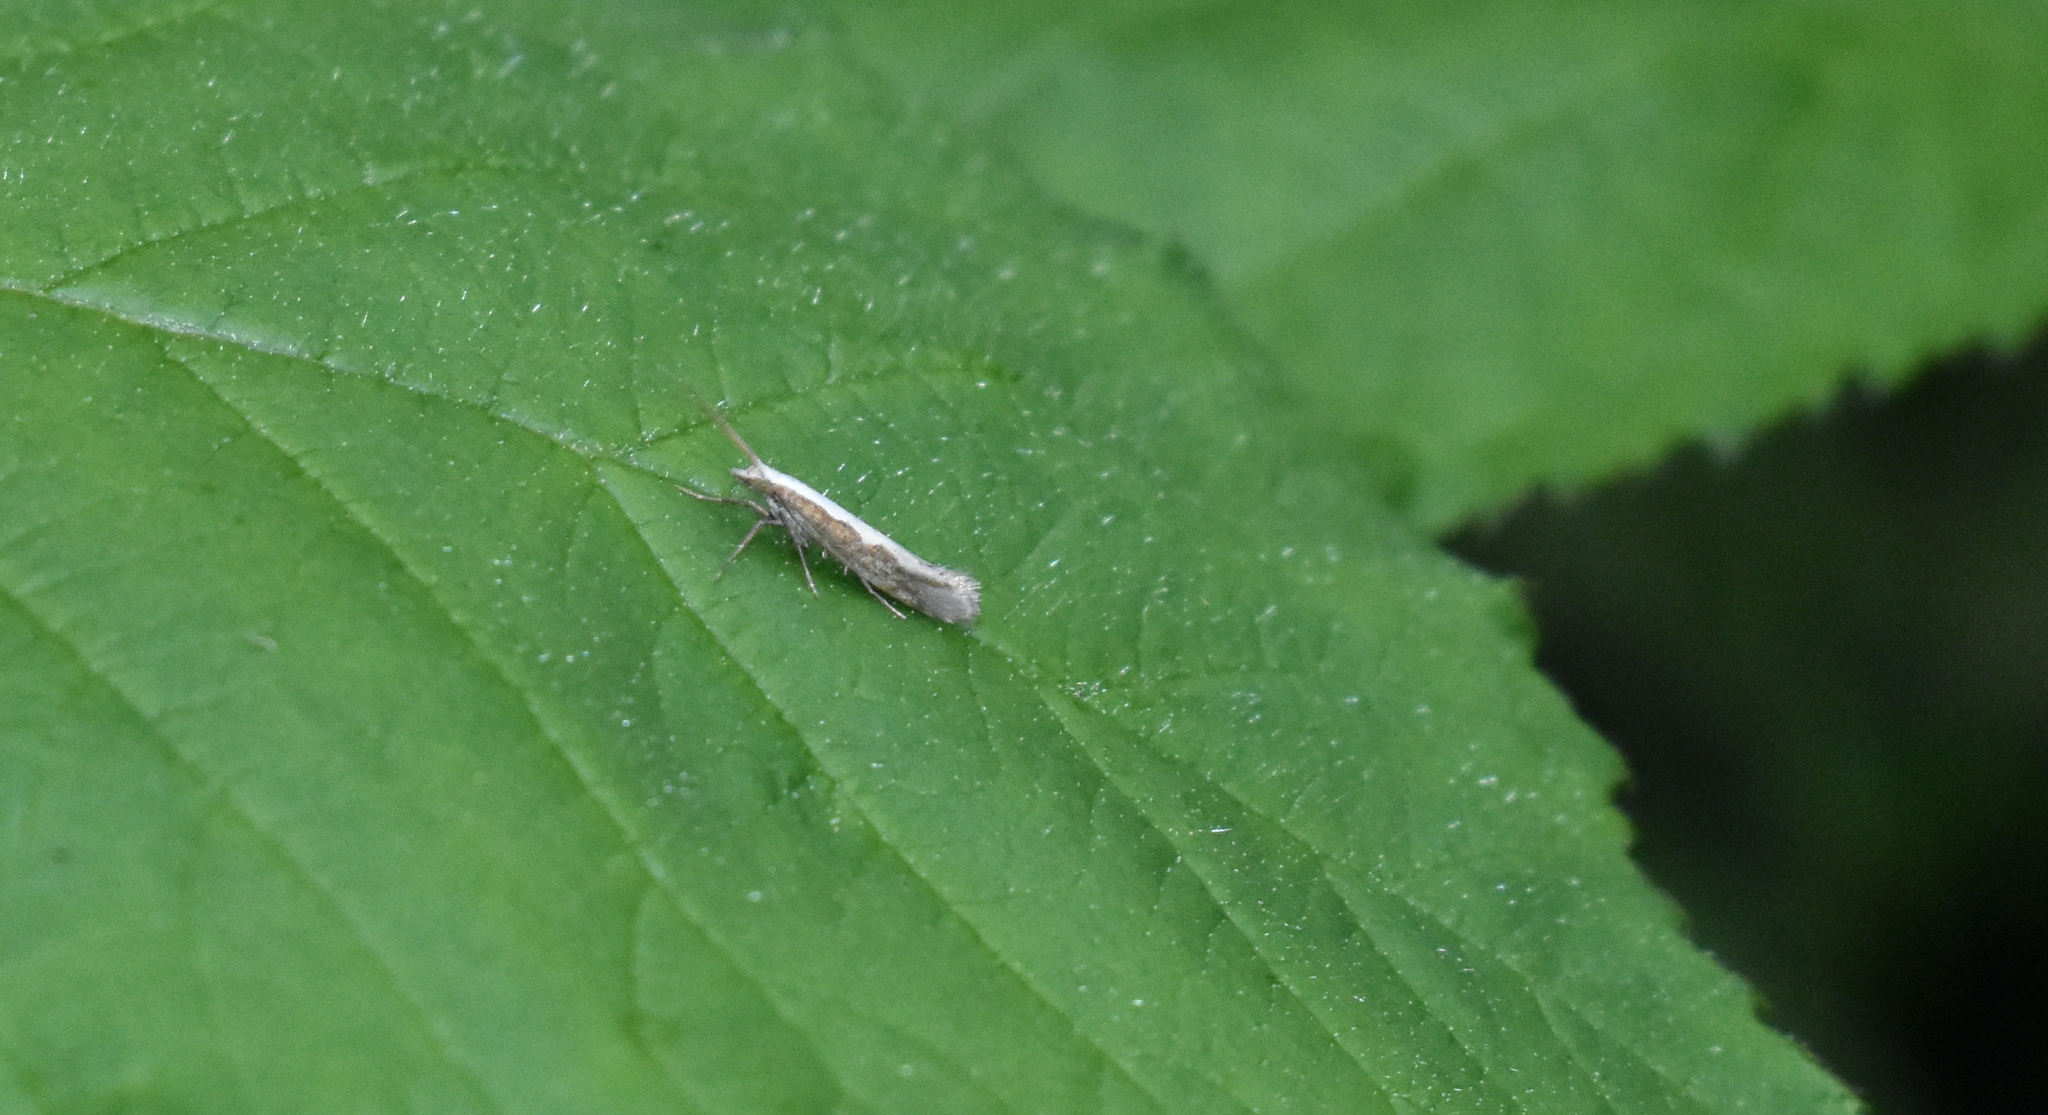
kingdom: Animalia
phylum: Arthropoda
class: Insecta
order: Lepidoptera
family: Plutellidae
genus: Plutella
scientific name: Plutella xylostella
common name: Diamond-back moth
